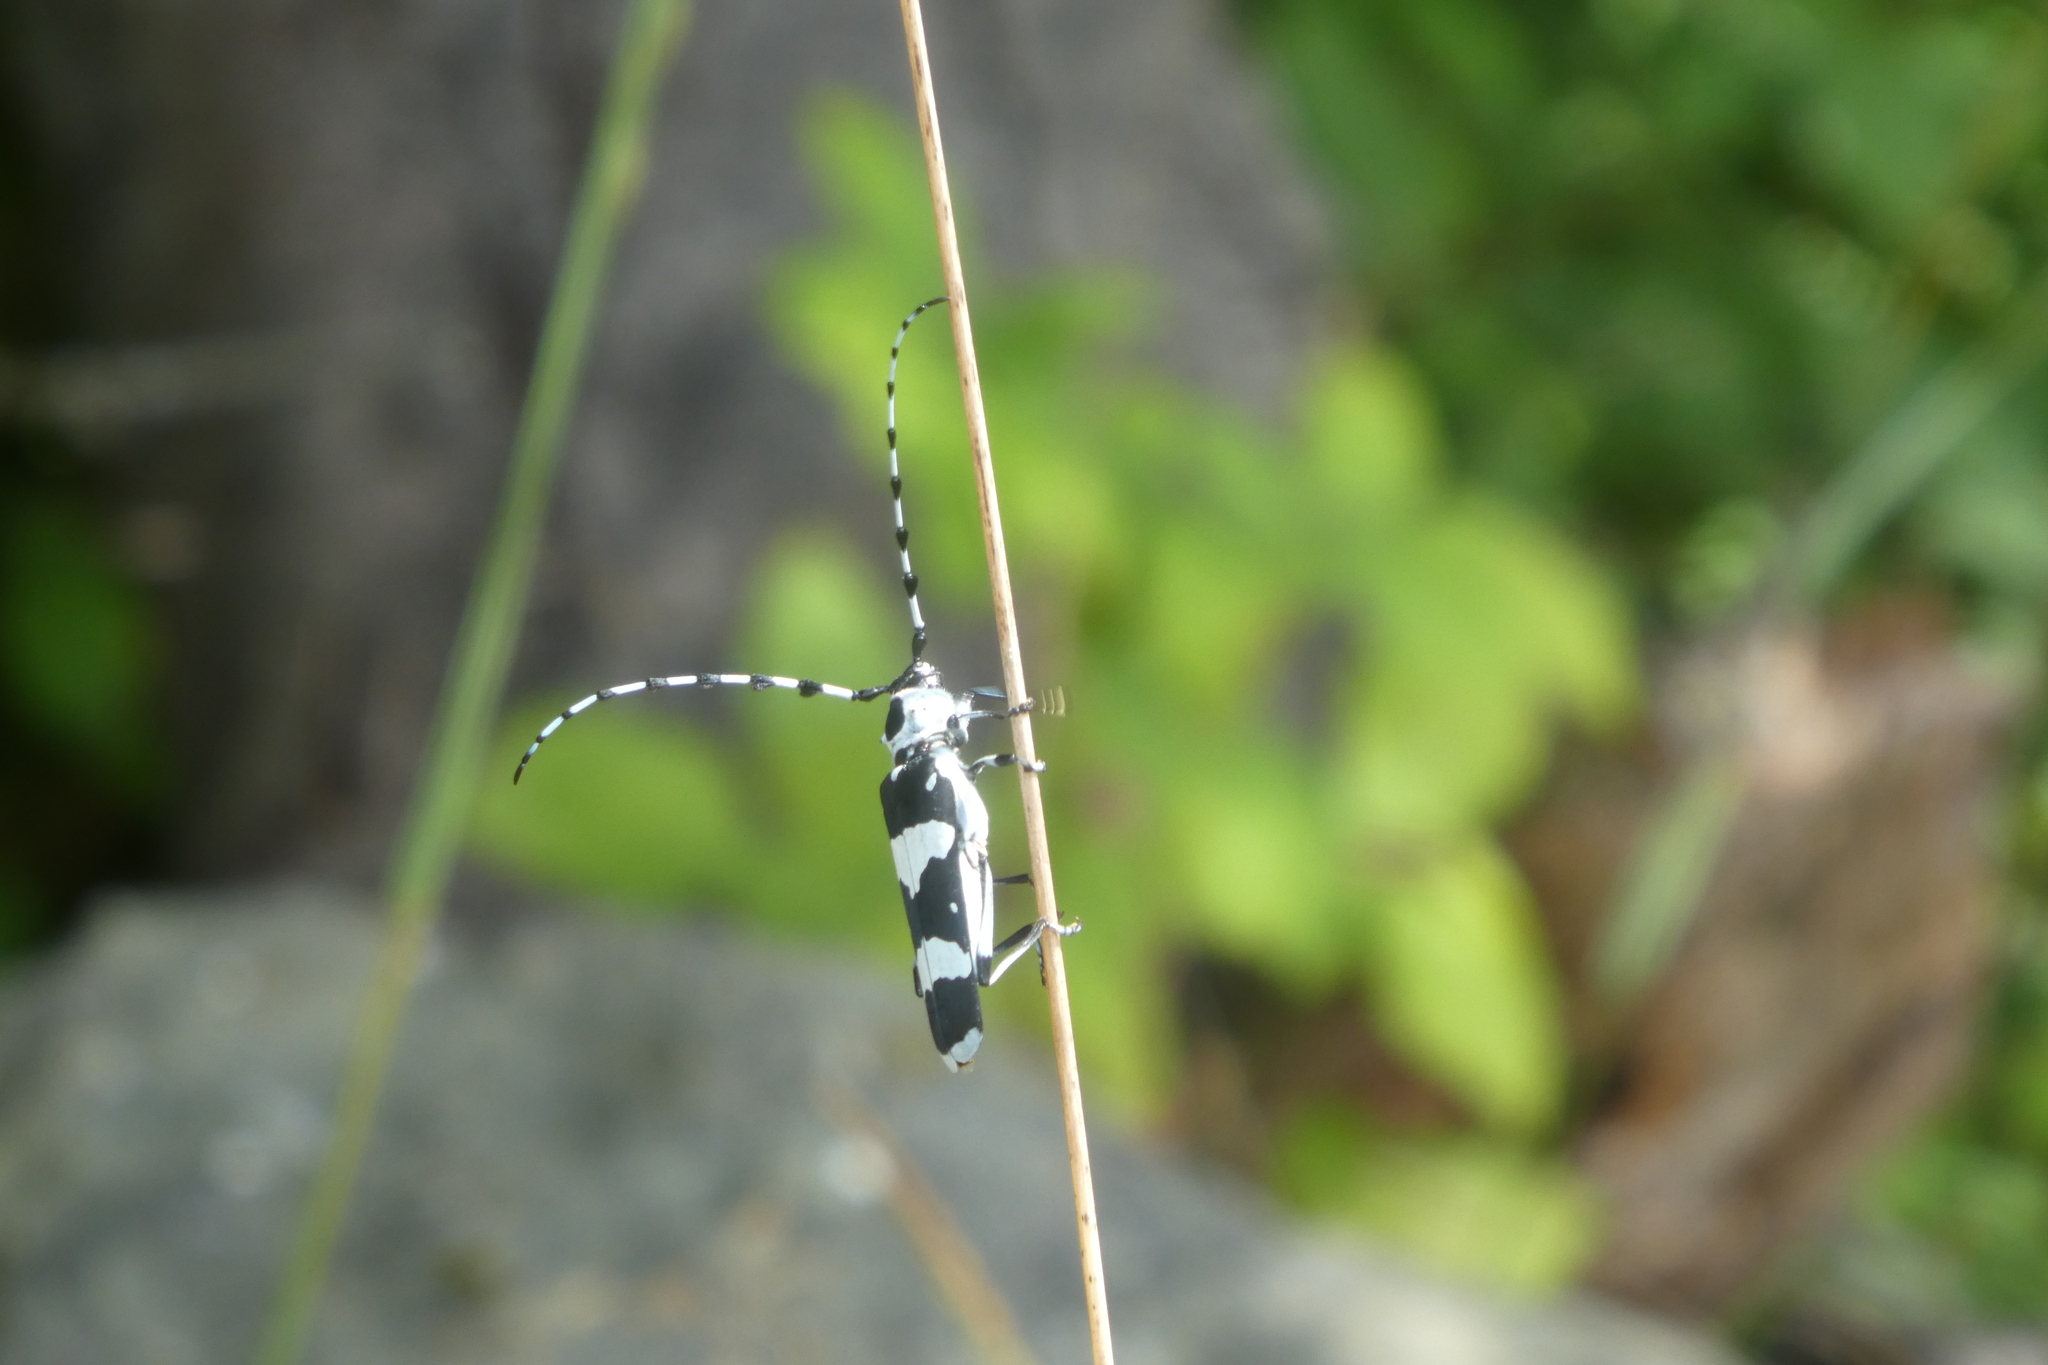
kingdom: Animalia
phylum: Arthropoda
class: Insecta
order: Coleoptera
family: Cerambycidae
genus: Rosalia
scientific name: Rosalia funebris
